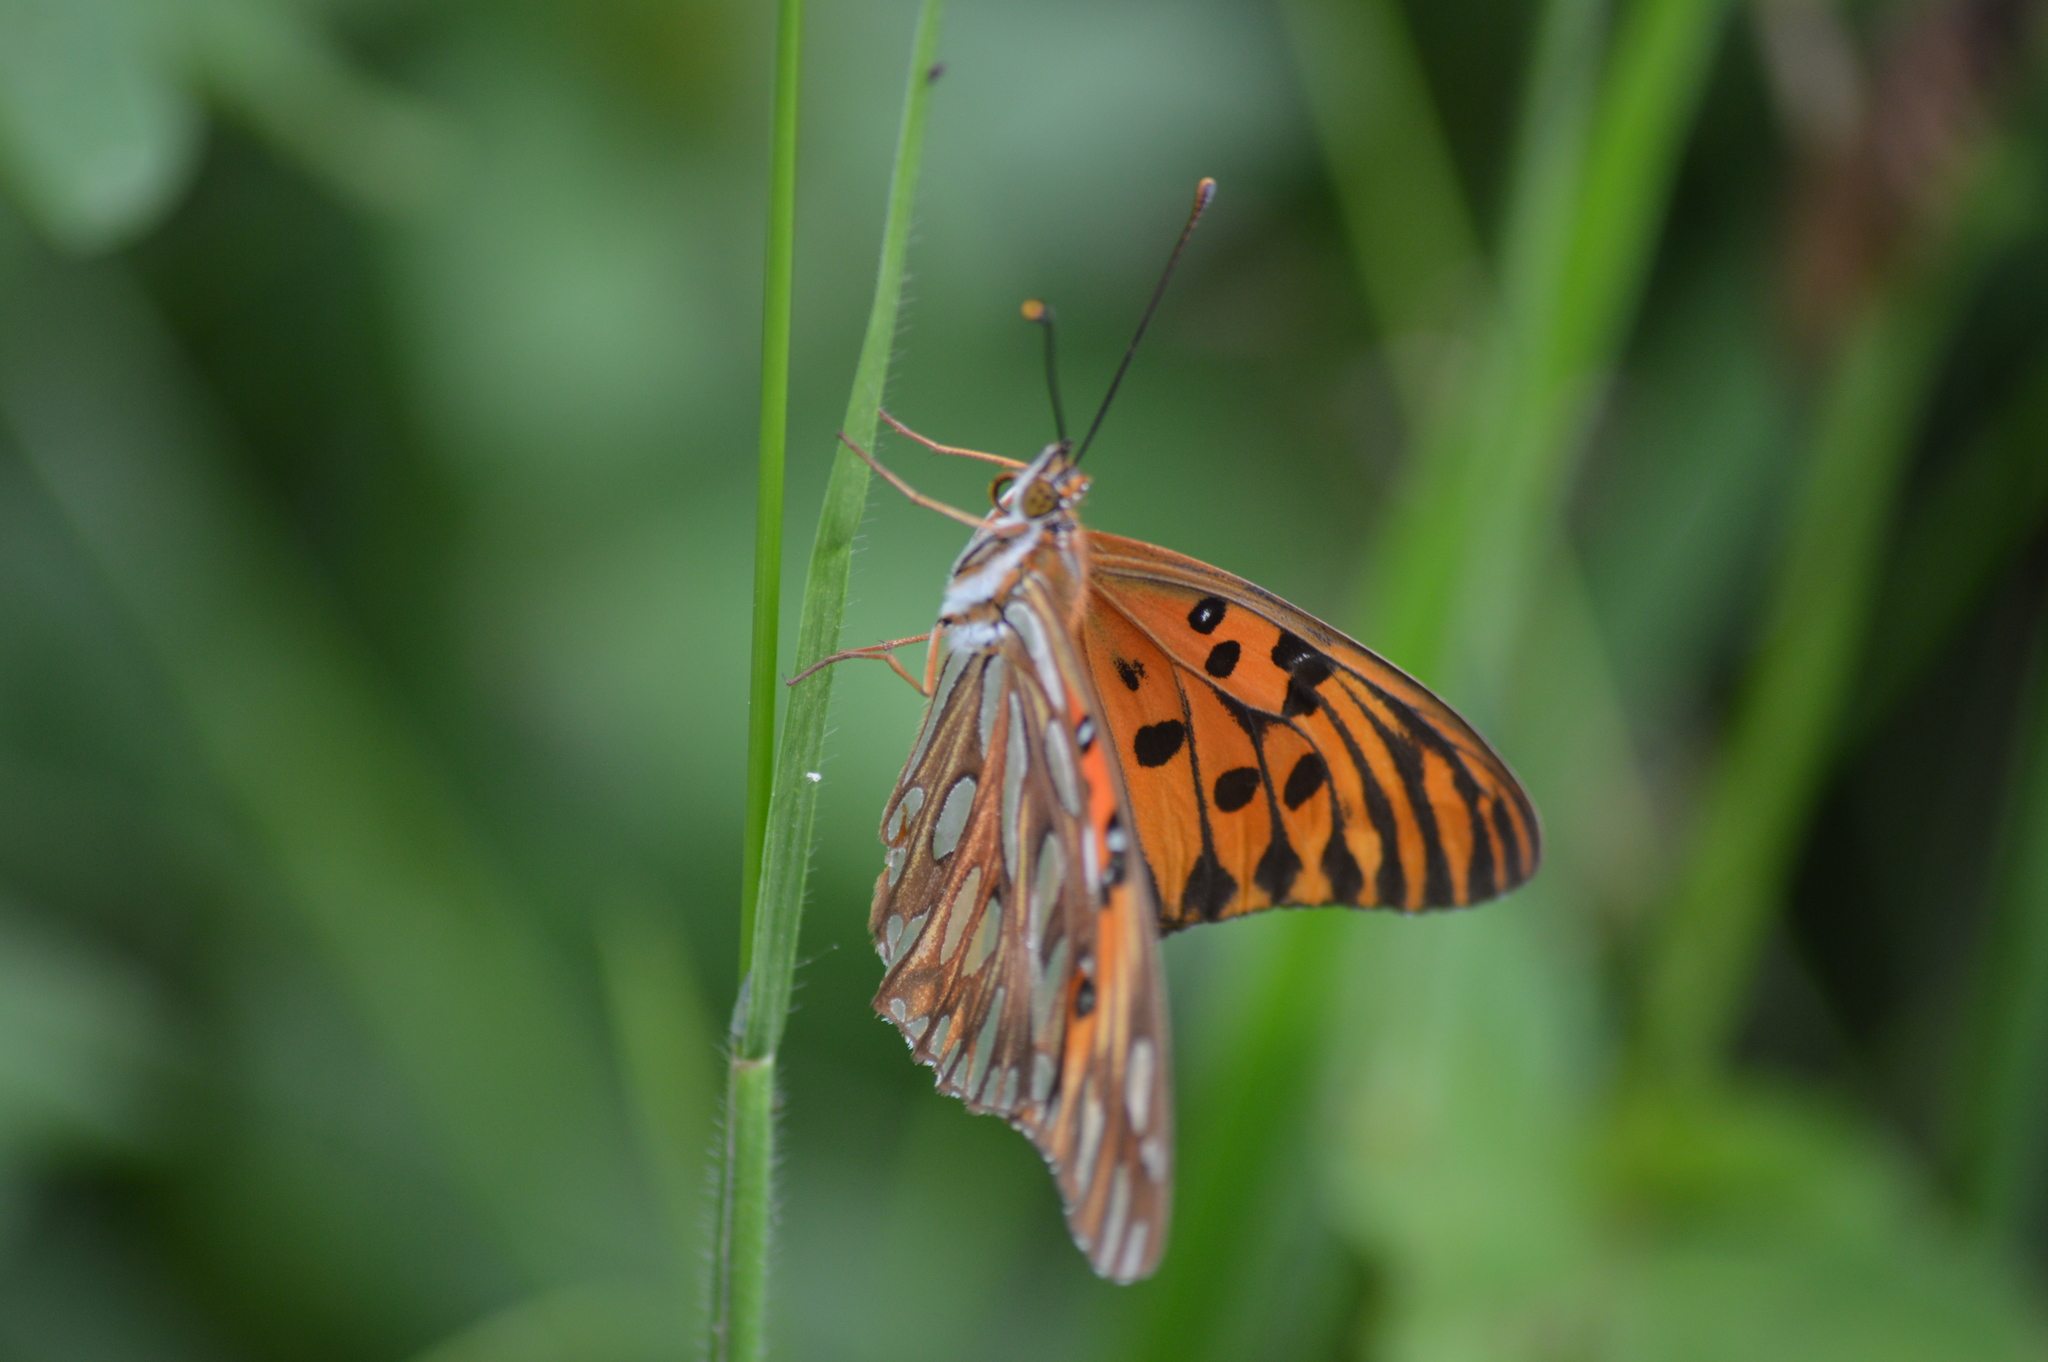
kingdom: Animalia
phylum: Arthropoda
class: Insecta
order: Lepidoptera
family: Nymphalidae
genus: Dione
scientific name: Dione vanillae
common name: Gulf fritillary
